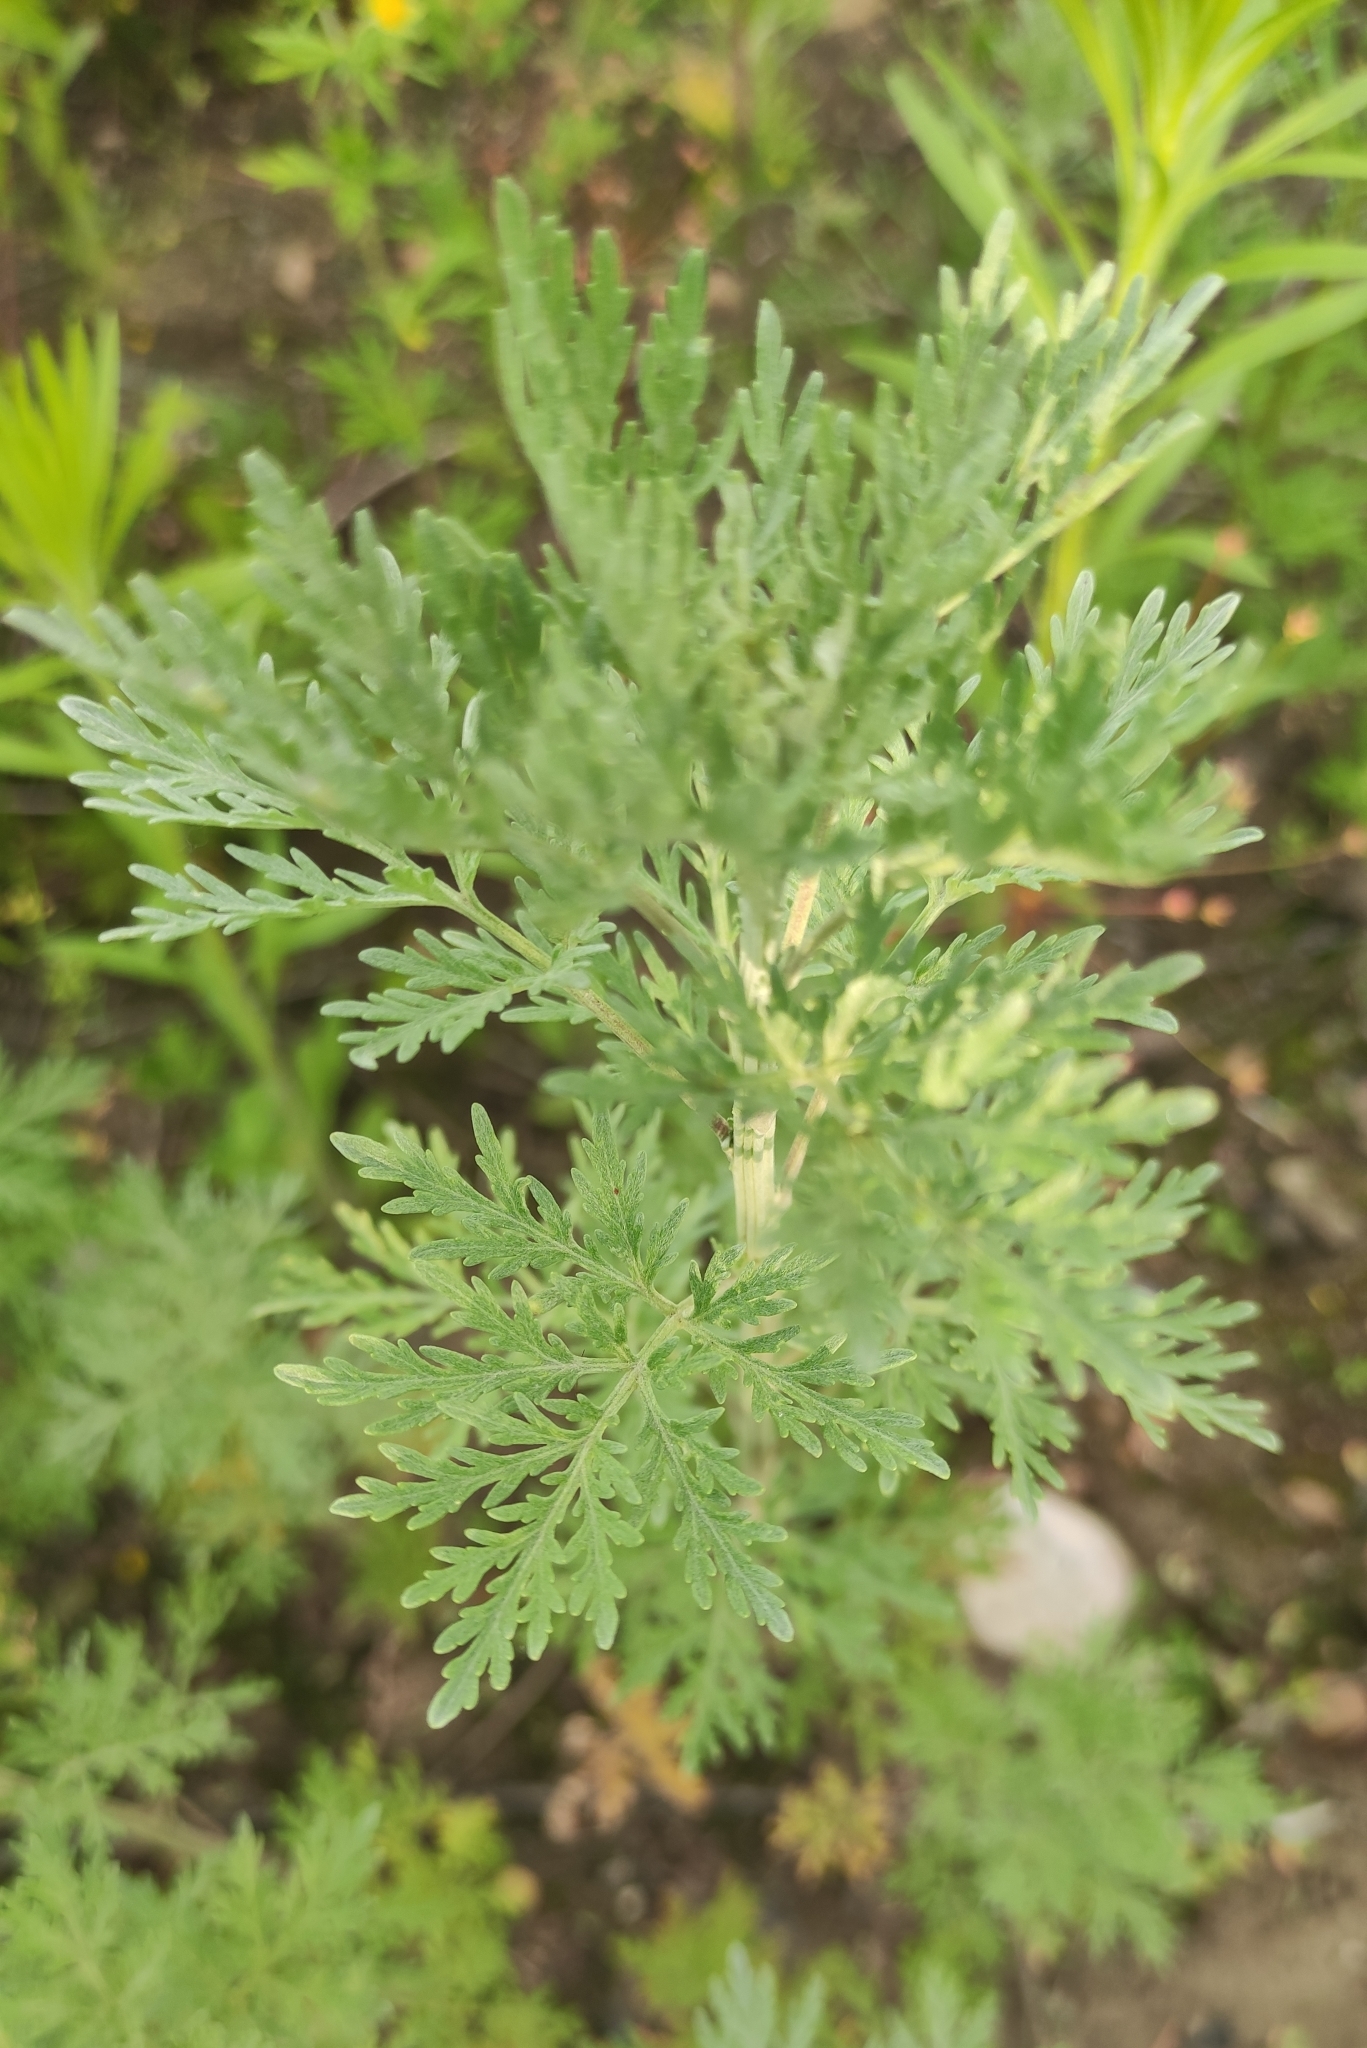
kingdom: Plantae
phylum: Tracheophyta
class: Magnoliopsida
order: Asterales
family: Asteraceae
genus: Artemisia
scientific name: Artemisia sieversiana
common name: Sieversian wormwood
